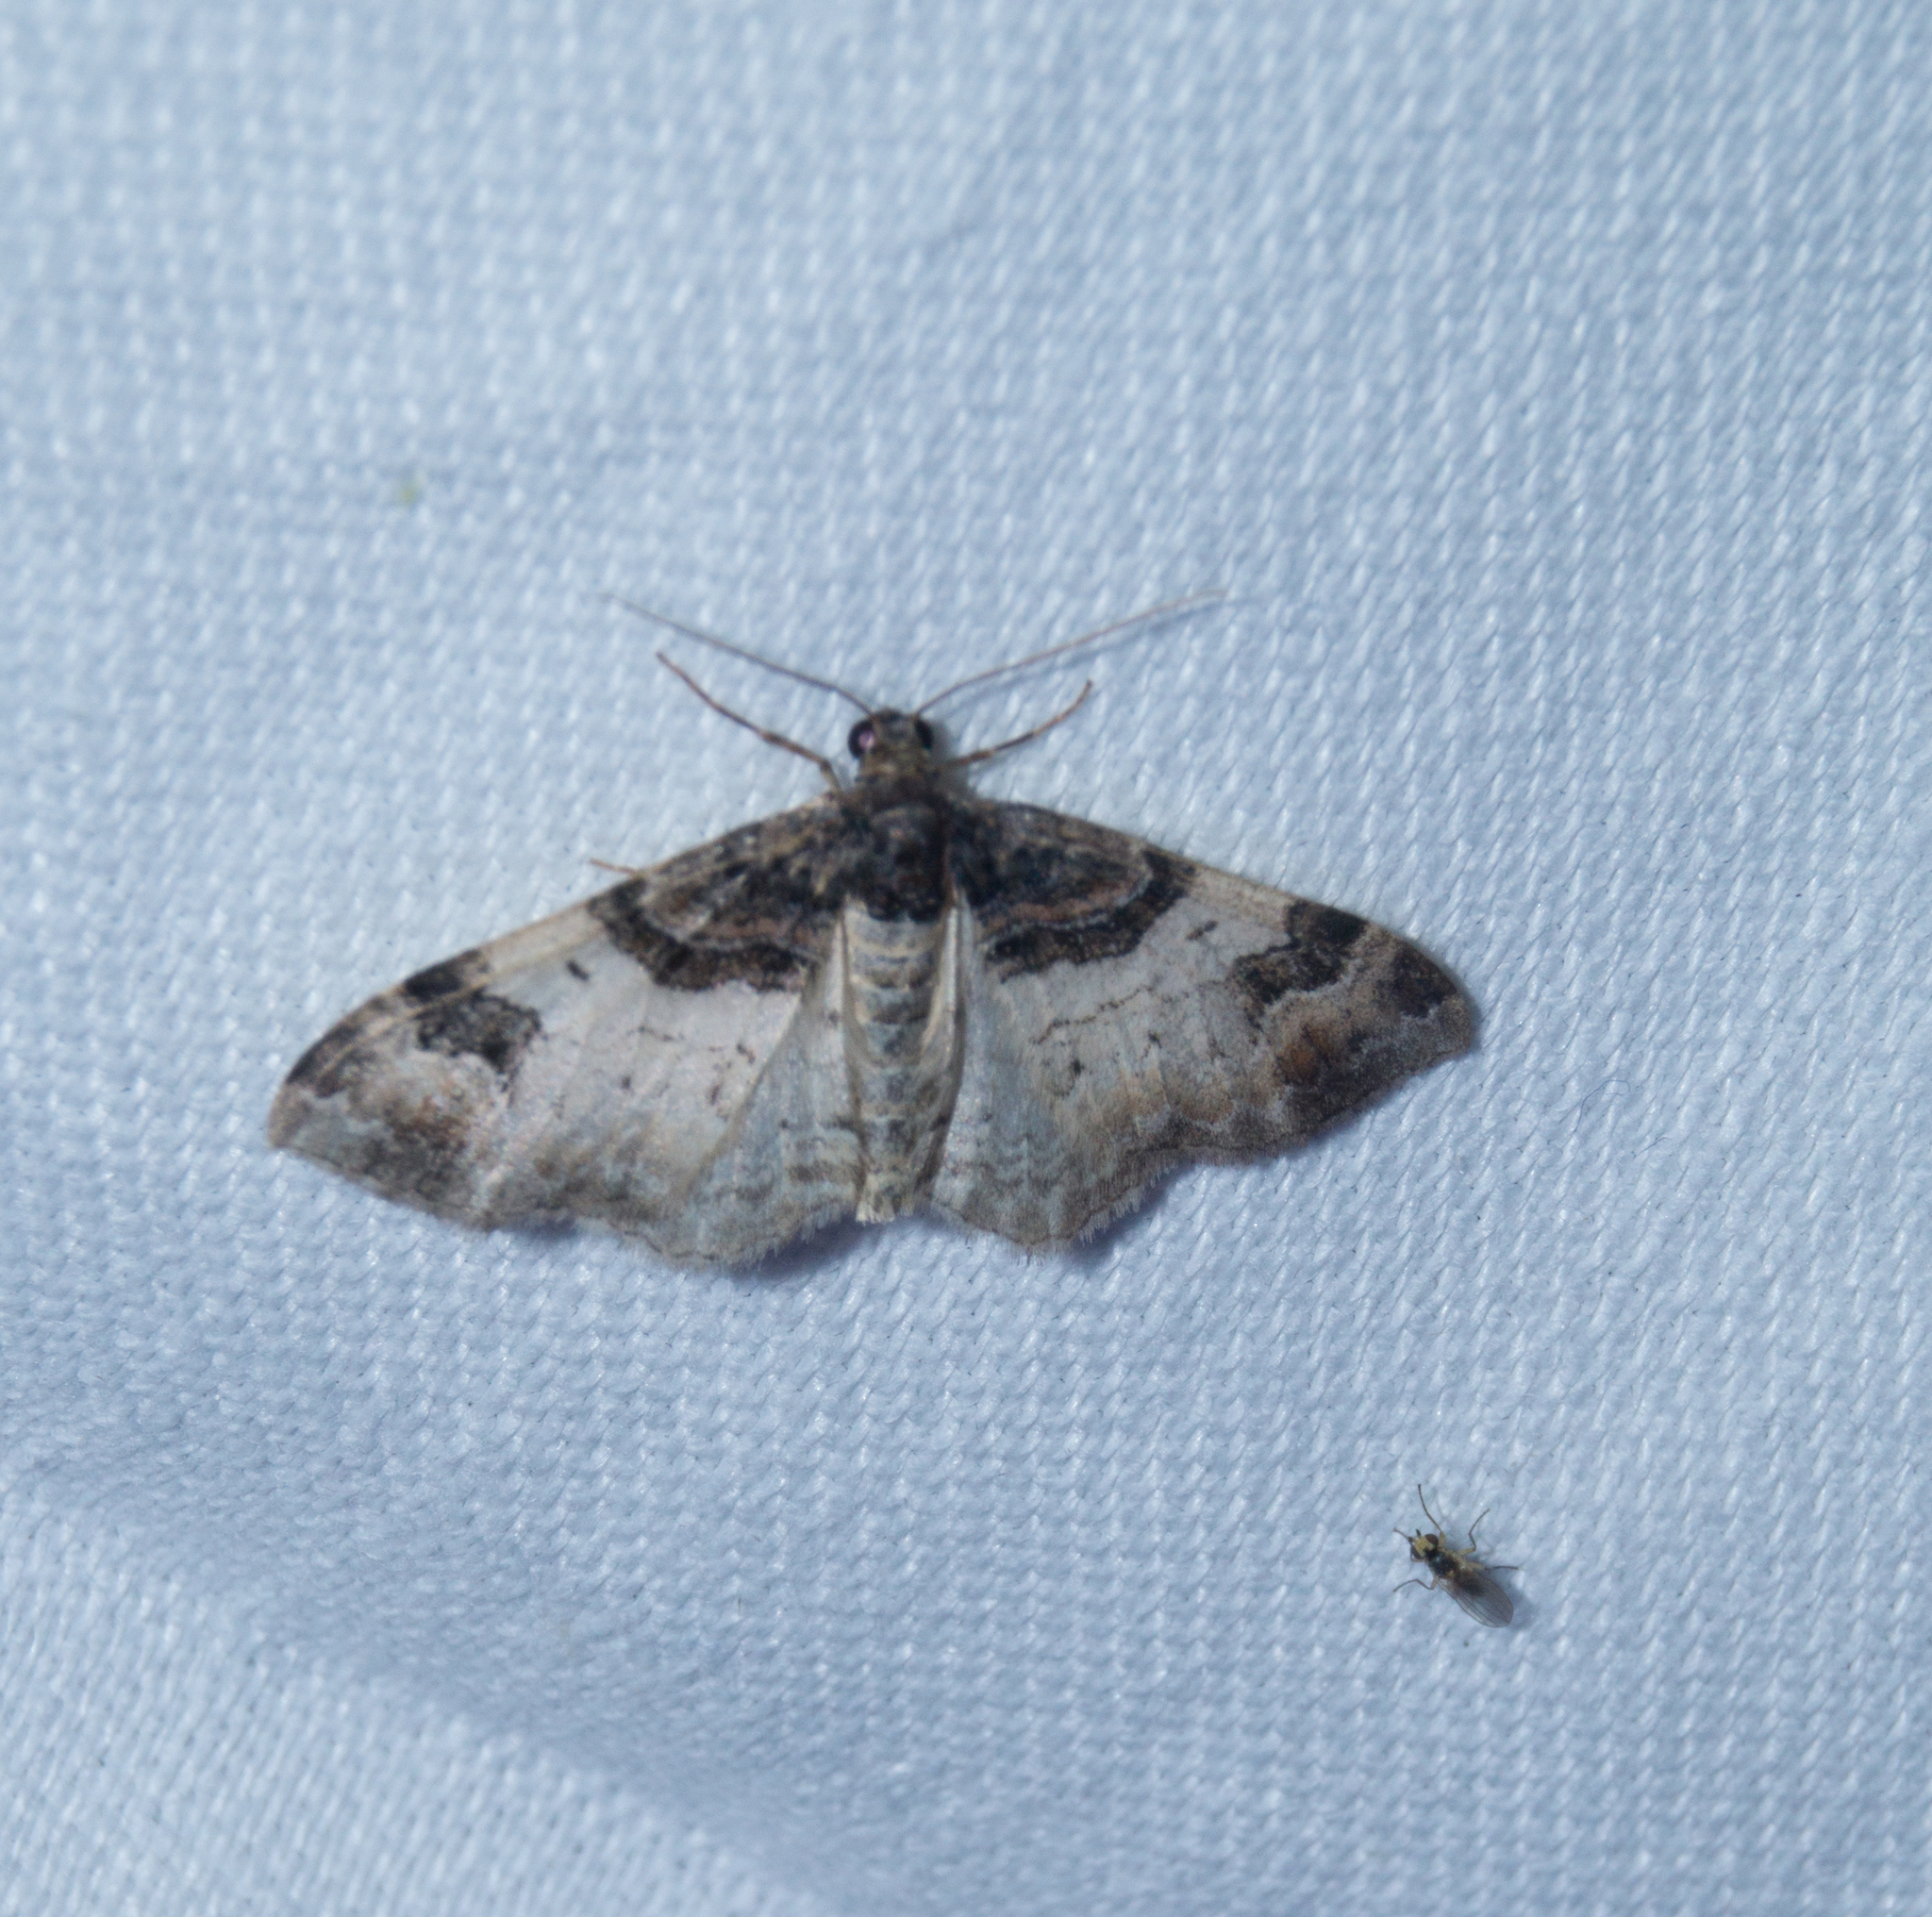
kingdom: Animalia
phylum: Arthropoda
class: Insecta
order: Lepidoptera
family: Geometridae
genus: Catarhoe
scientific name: Catarhoe cuculata
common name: Royal mantle
